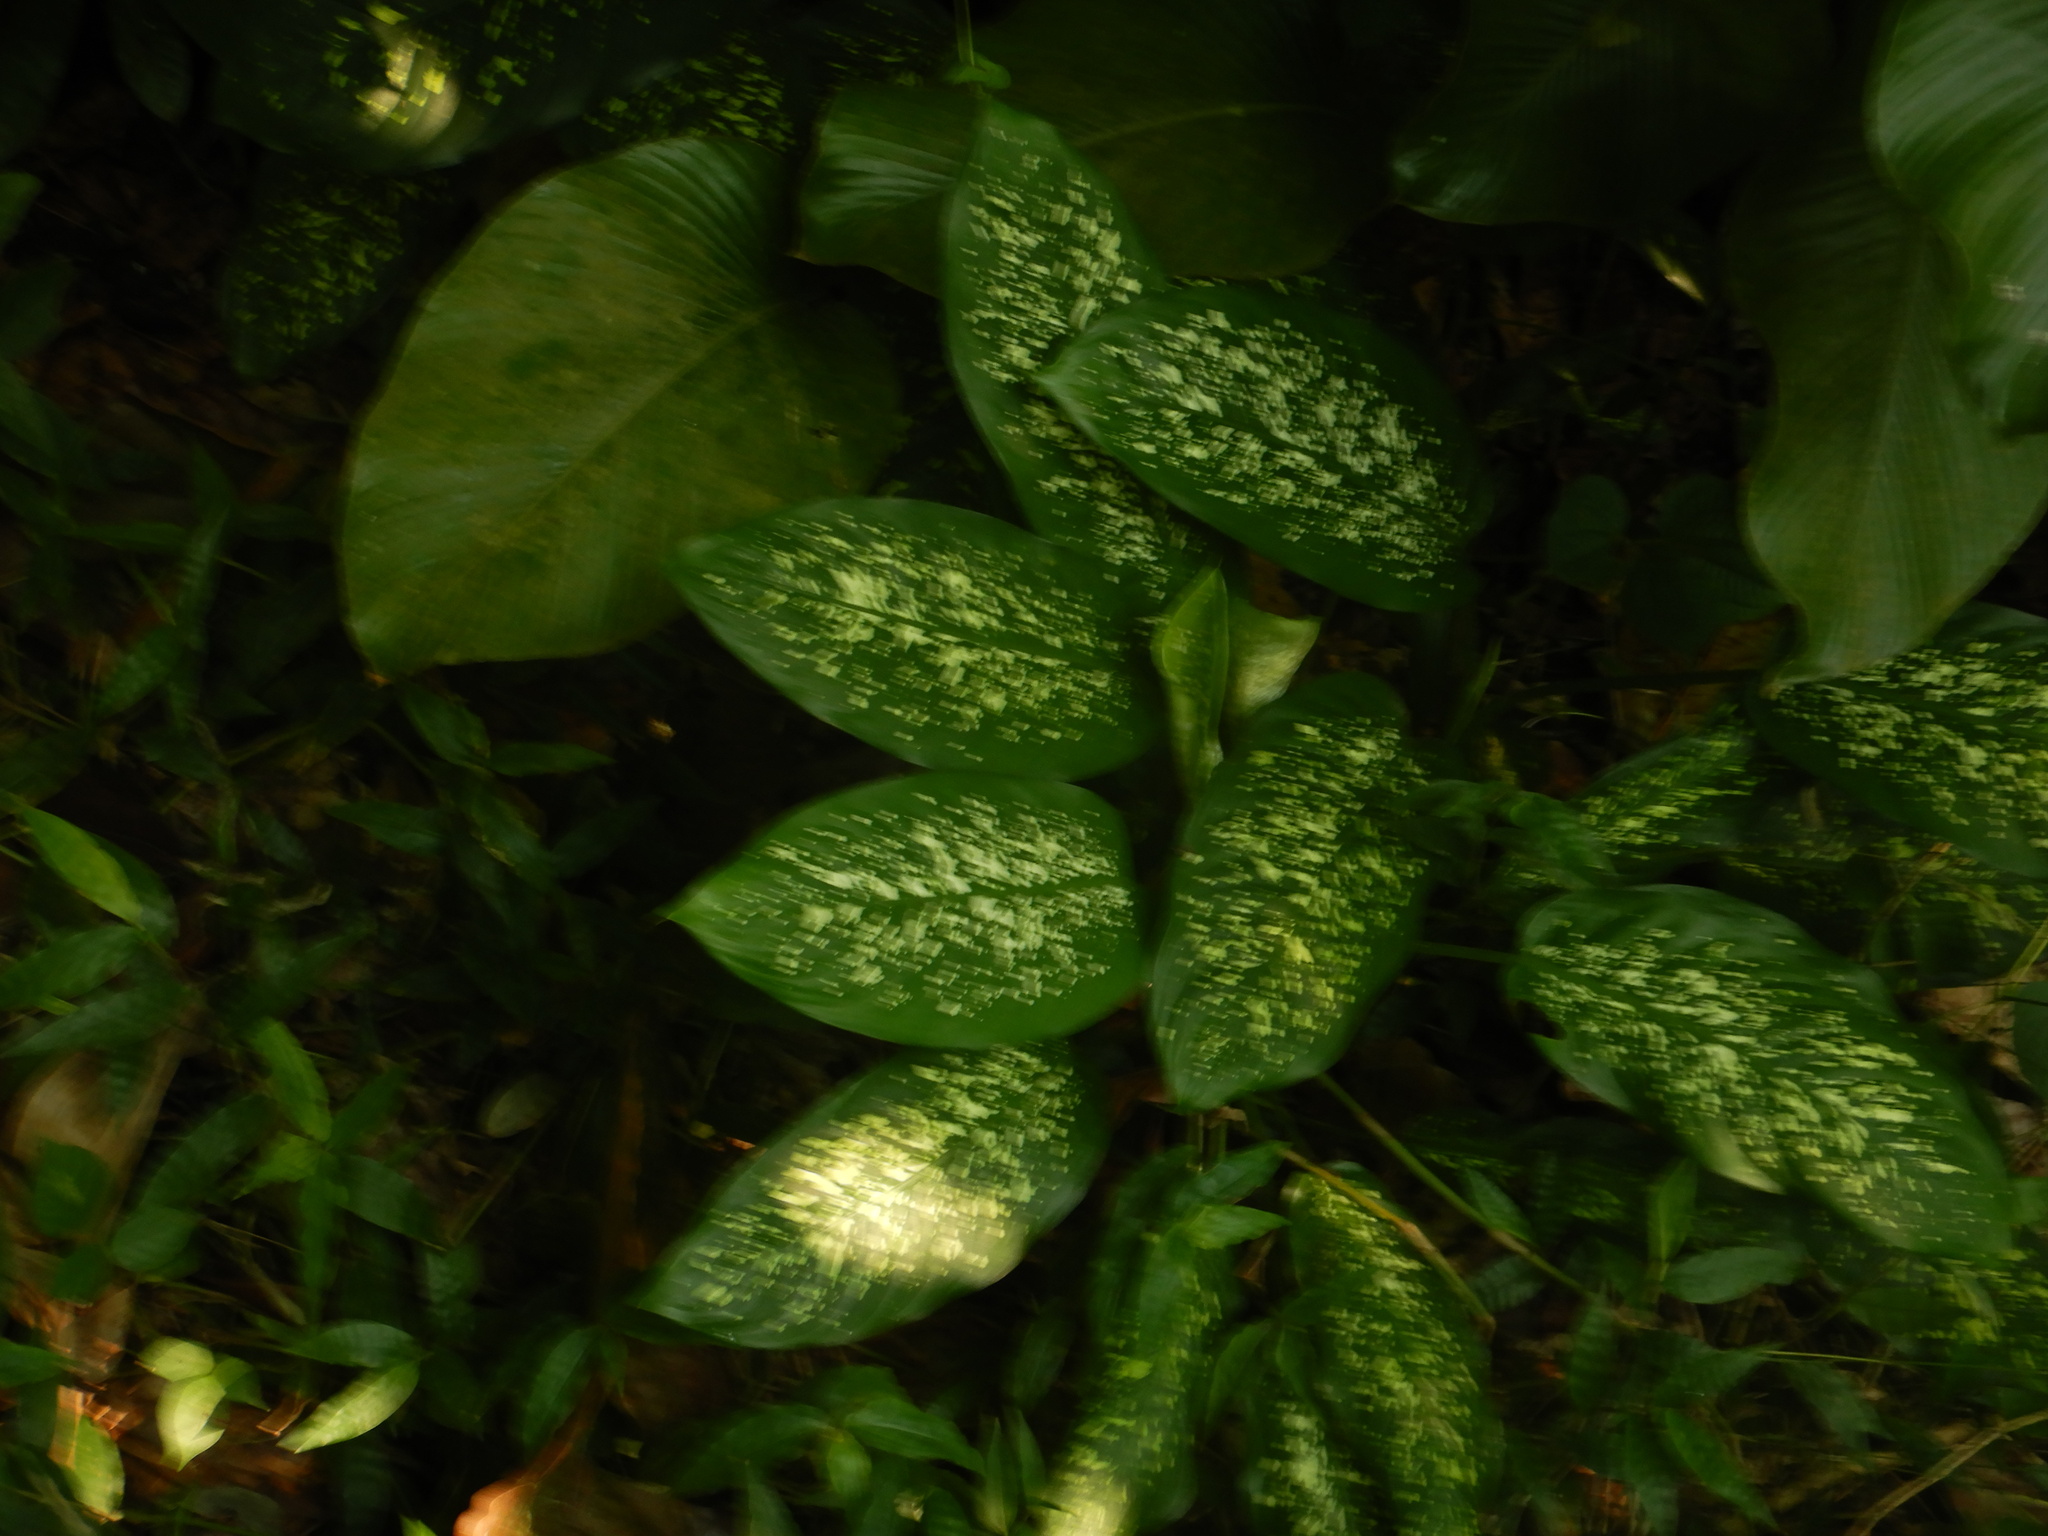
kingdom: Plantae
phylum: Tracheophyta
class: Liliopsida
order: Alismatales
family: Araceae
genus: Dieffenbachia
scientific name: Dieffenbachia seguine
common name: Dumbcane
